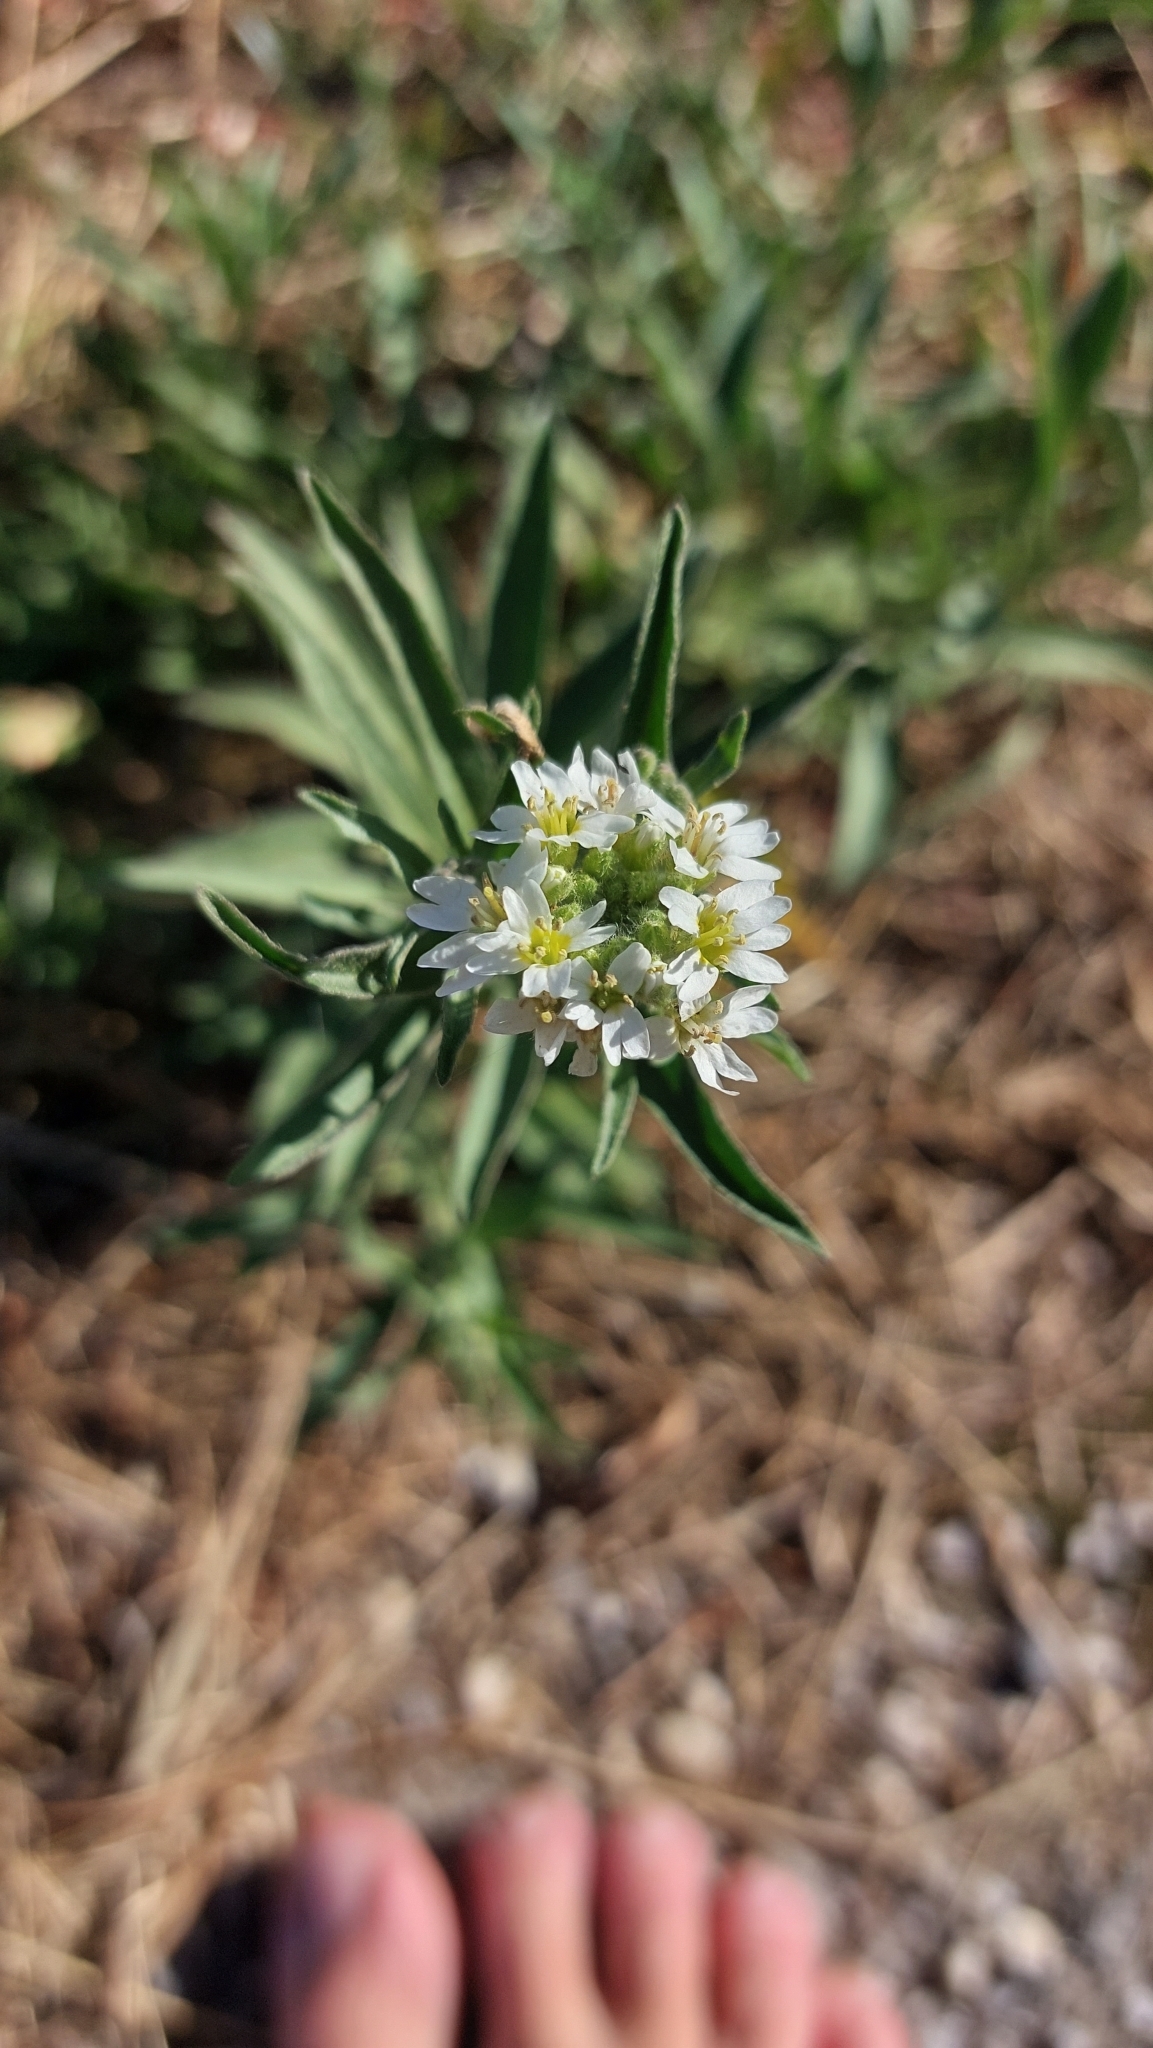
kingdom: Plantae
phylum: Tracheophyta
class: Magnoliopsida
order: Brassicales
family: Brassicaceae
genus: Berteroa
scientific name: Berteroa incana
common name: Hoary alison
